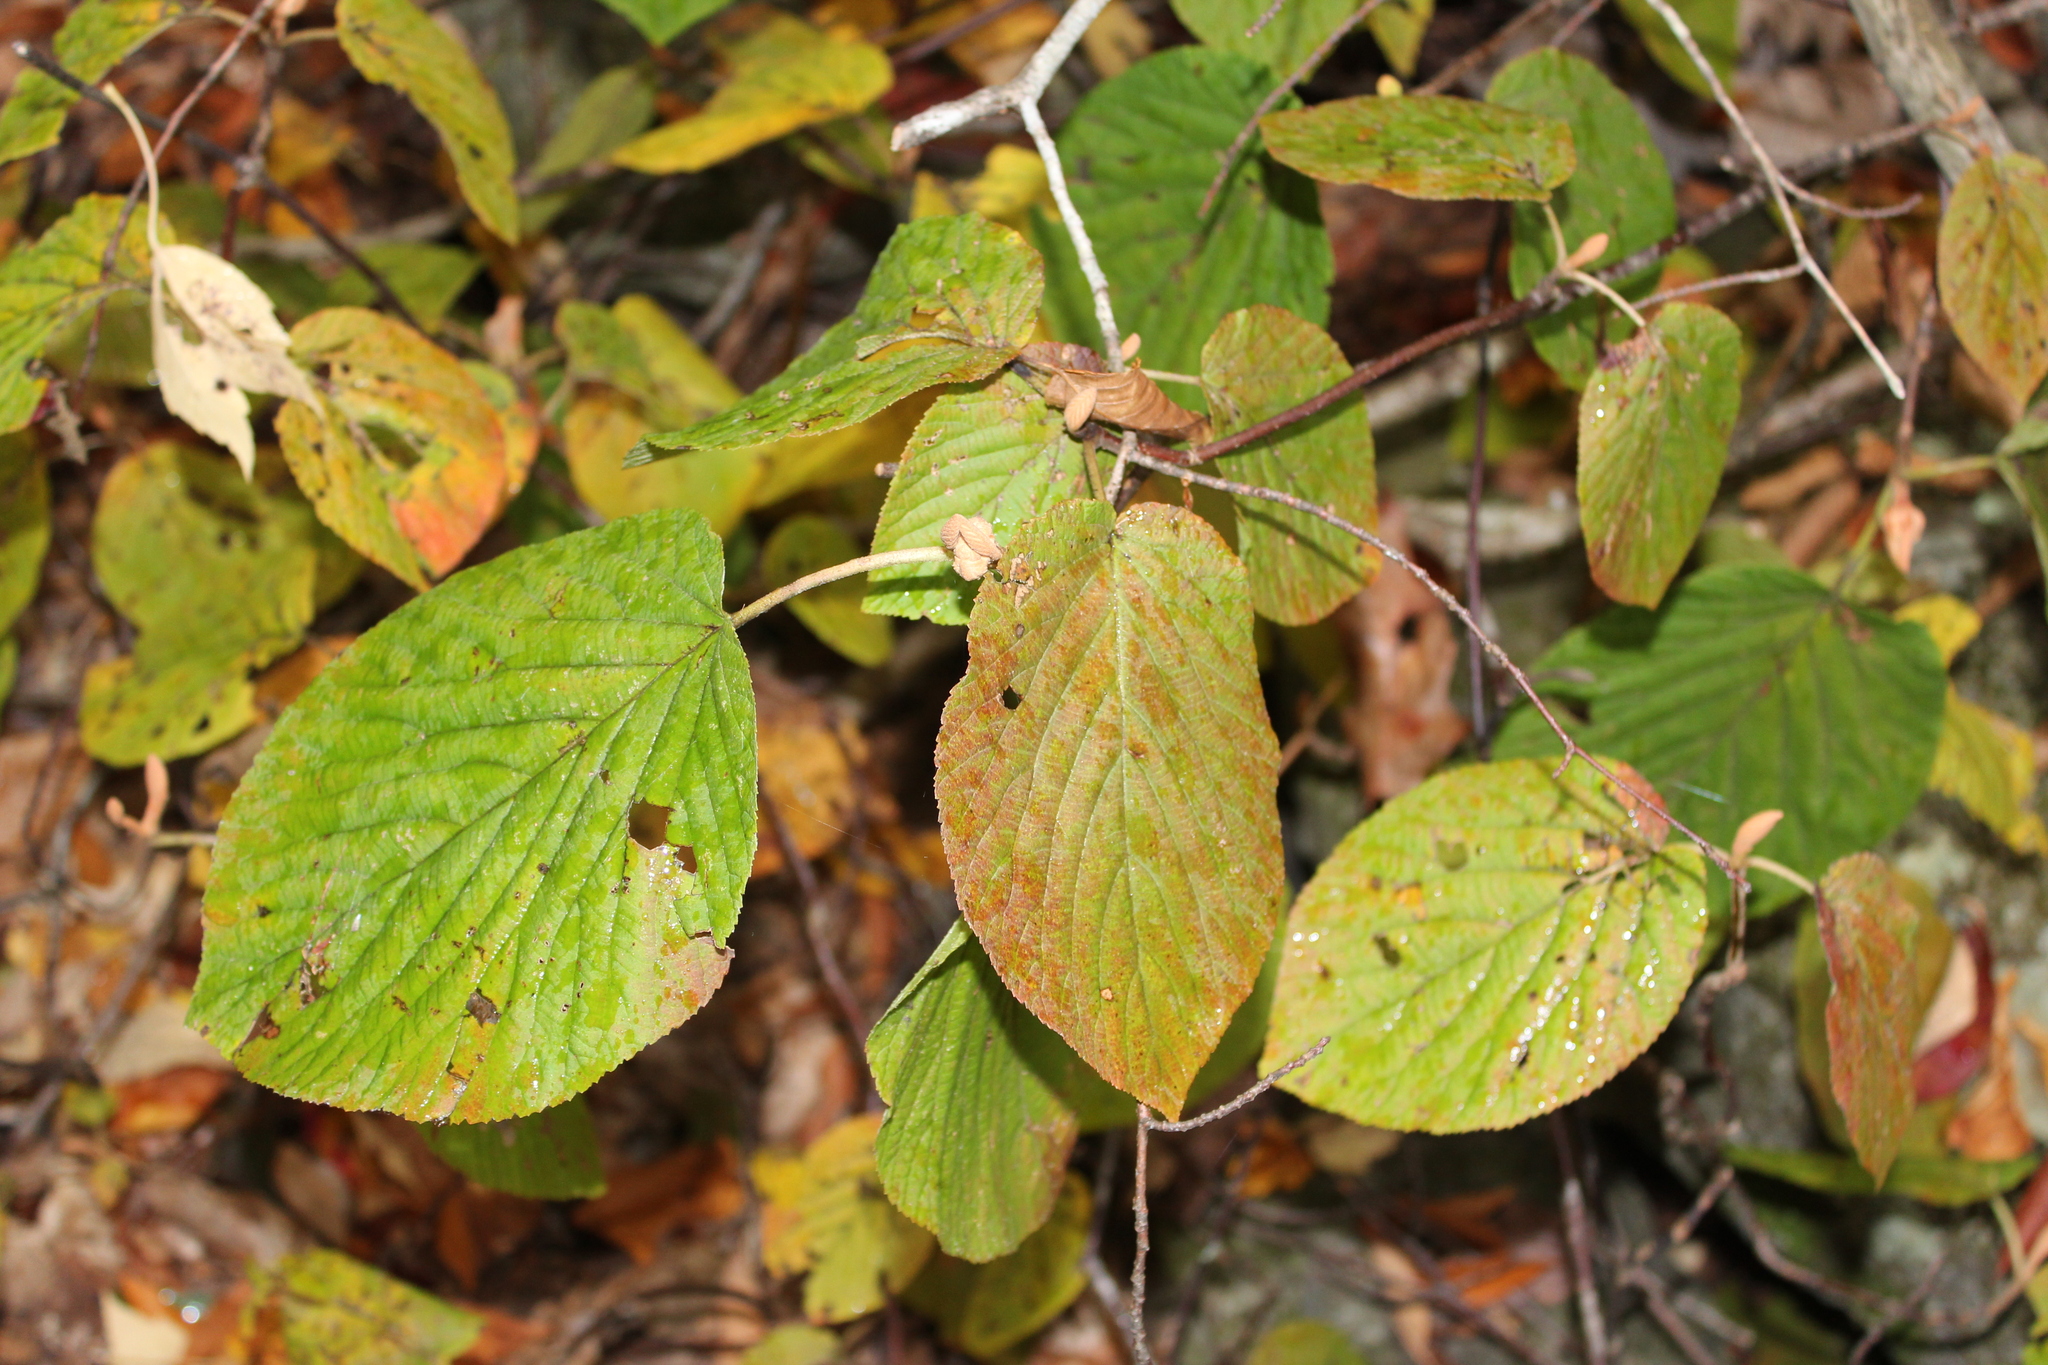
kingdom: Plantae
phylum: Tracheophyta
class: Magnoliopsida
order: Dipsacales
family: Viburnaceae
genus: Viburnum
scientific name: Viburnum lantanoides
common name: Hobblebush
